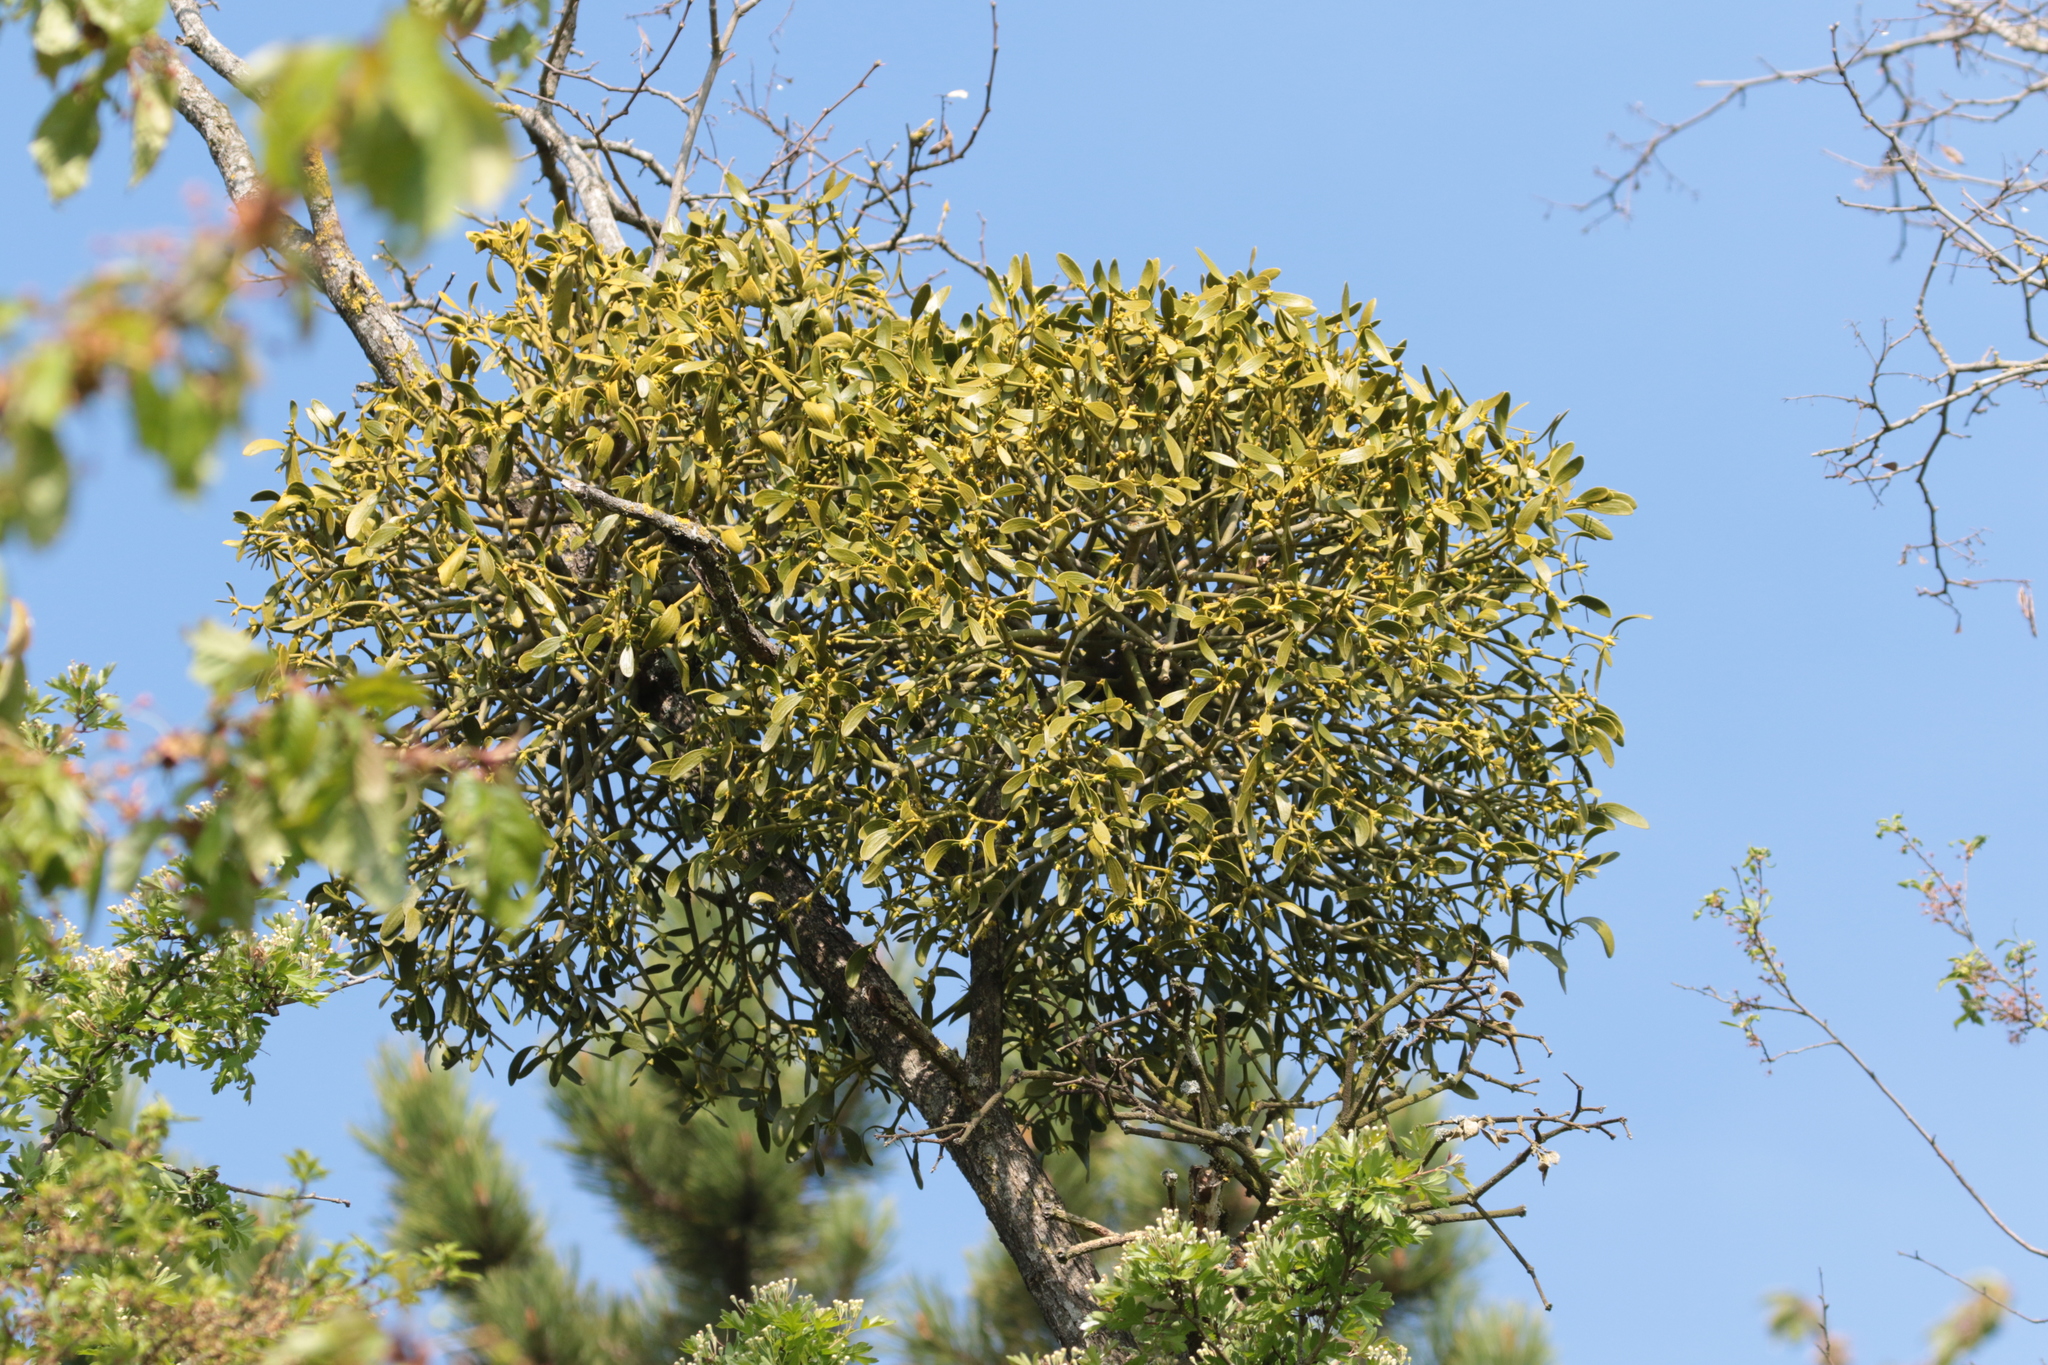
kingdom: Plantae
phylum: Tracheophyta
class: Magnoliopsida
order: Santalales
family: Viscaceae
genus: Viscum
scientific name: Viscum album
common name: Mistletoe
